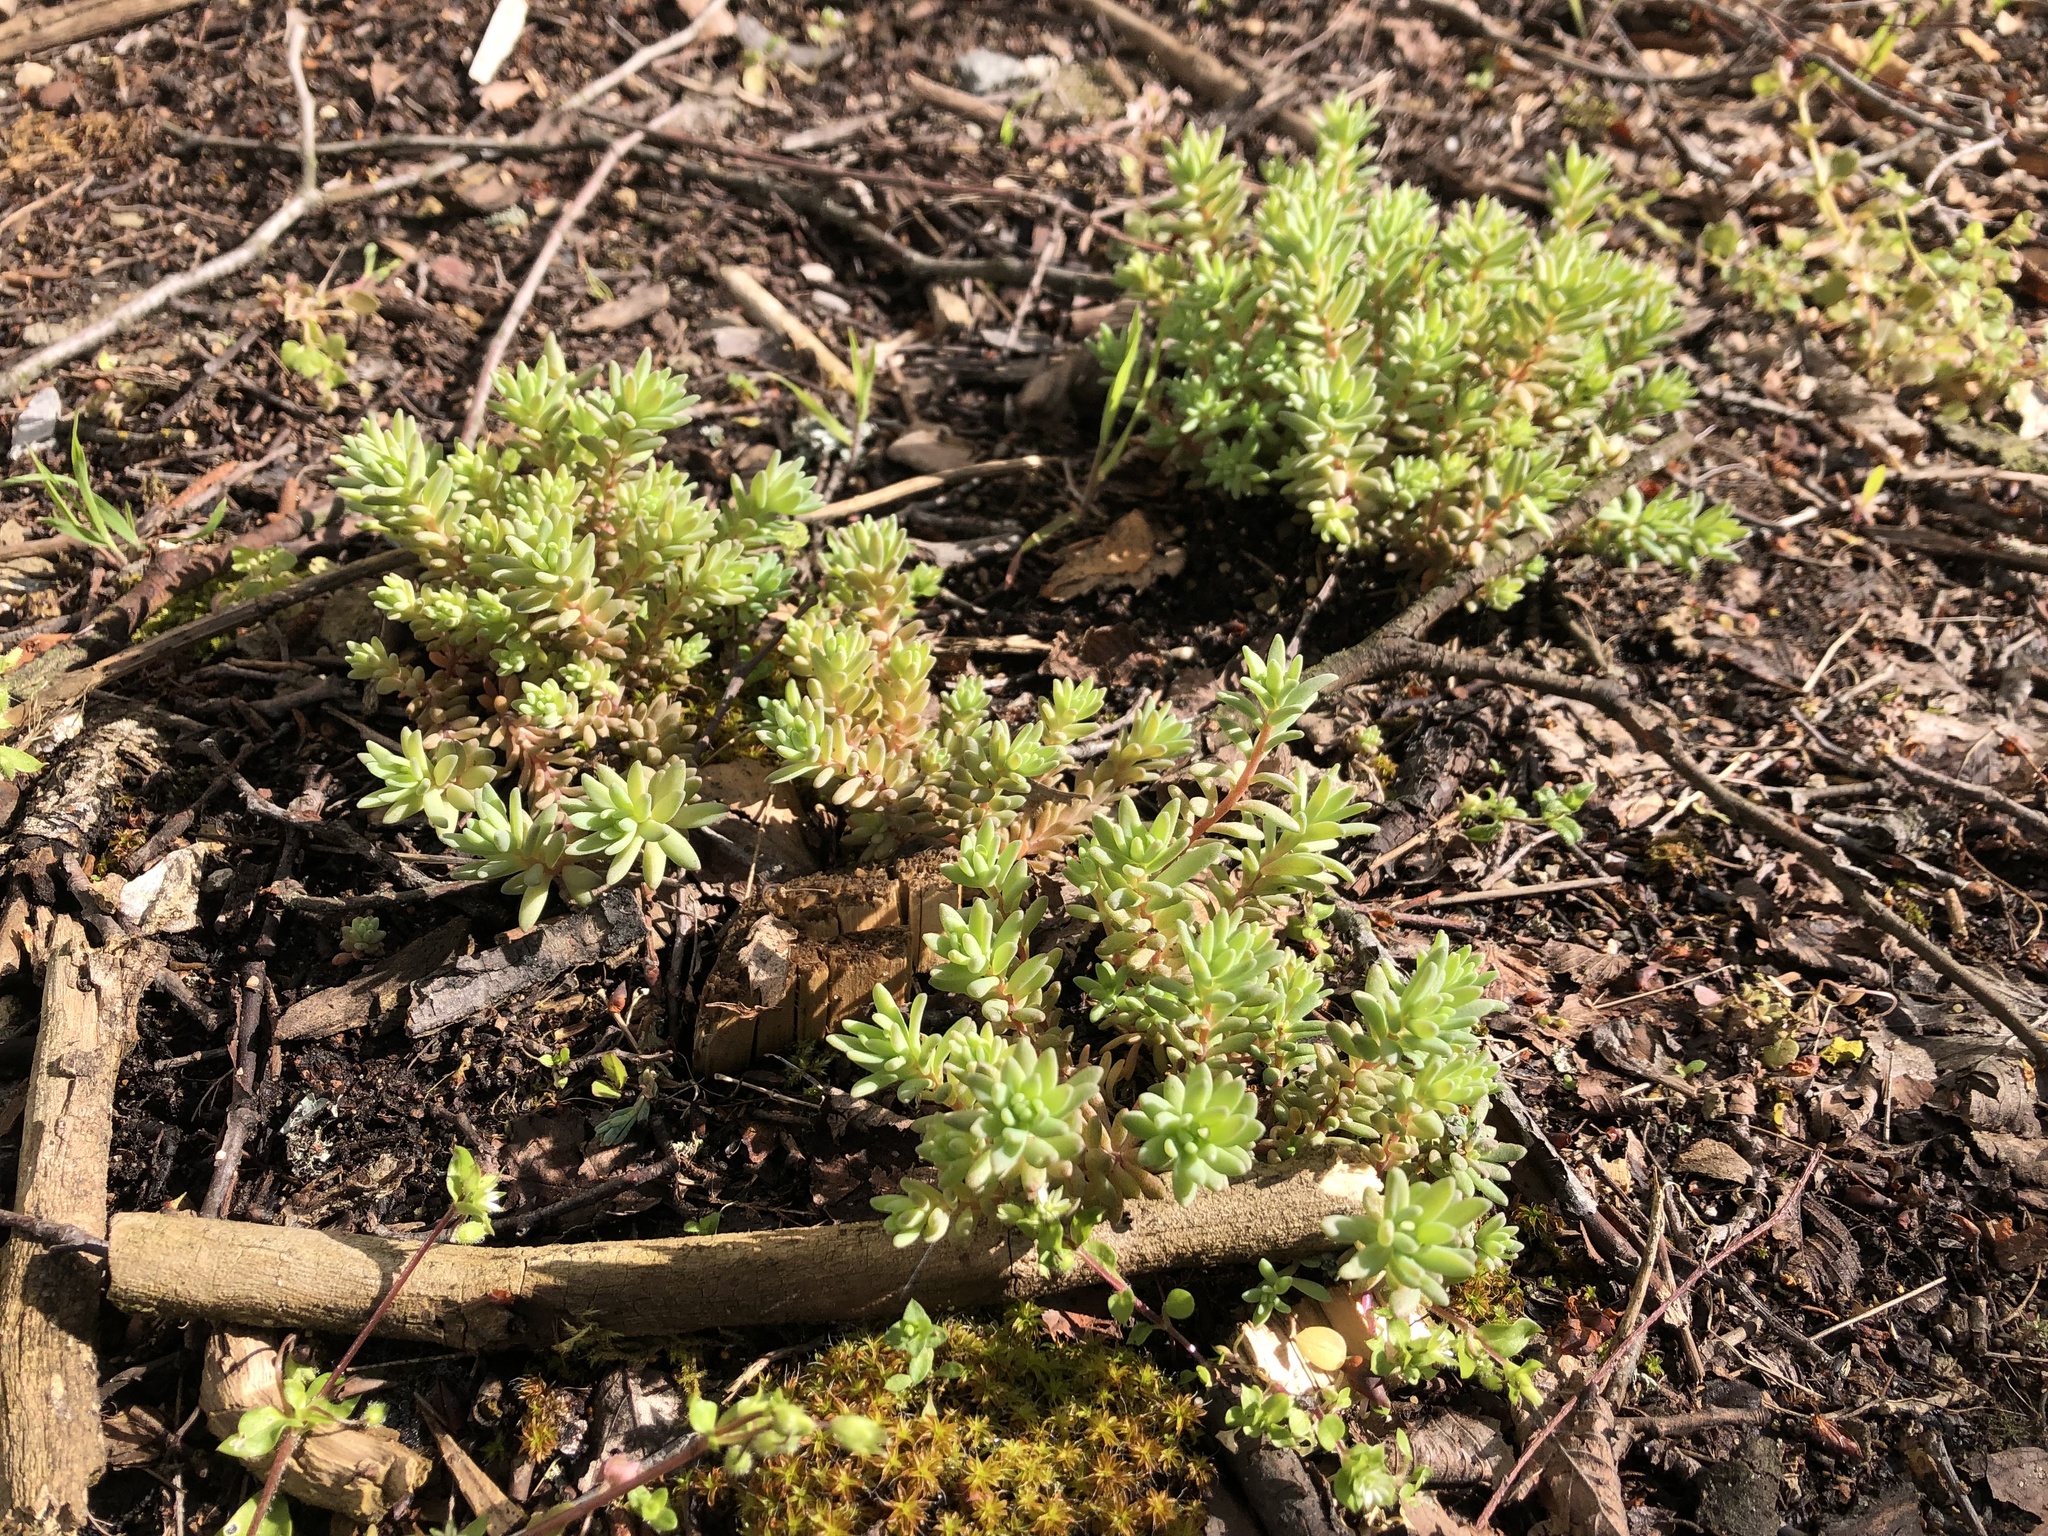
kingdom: Plantae
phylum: Tracheophyta
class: Magnoliopsida
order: Saxifragales
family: Crassulaceae
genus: Sedum
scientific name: Sedum hispanicum
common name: Spanish stonecrop
